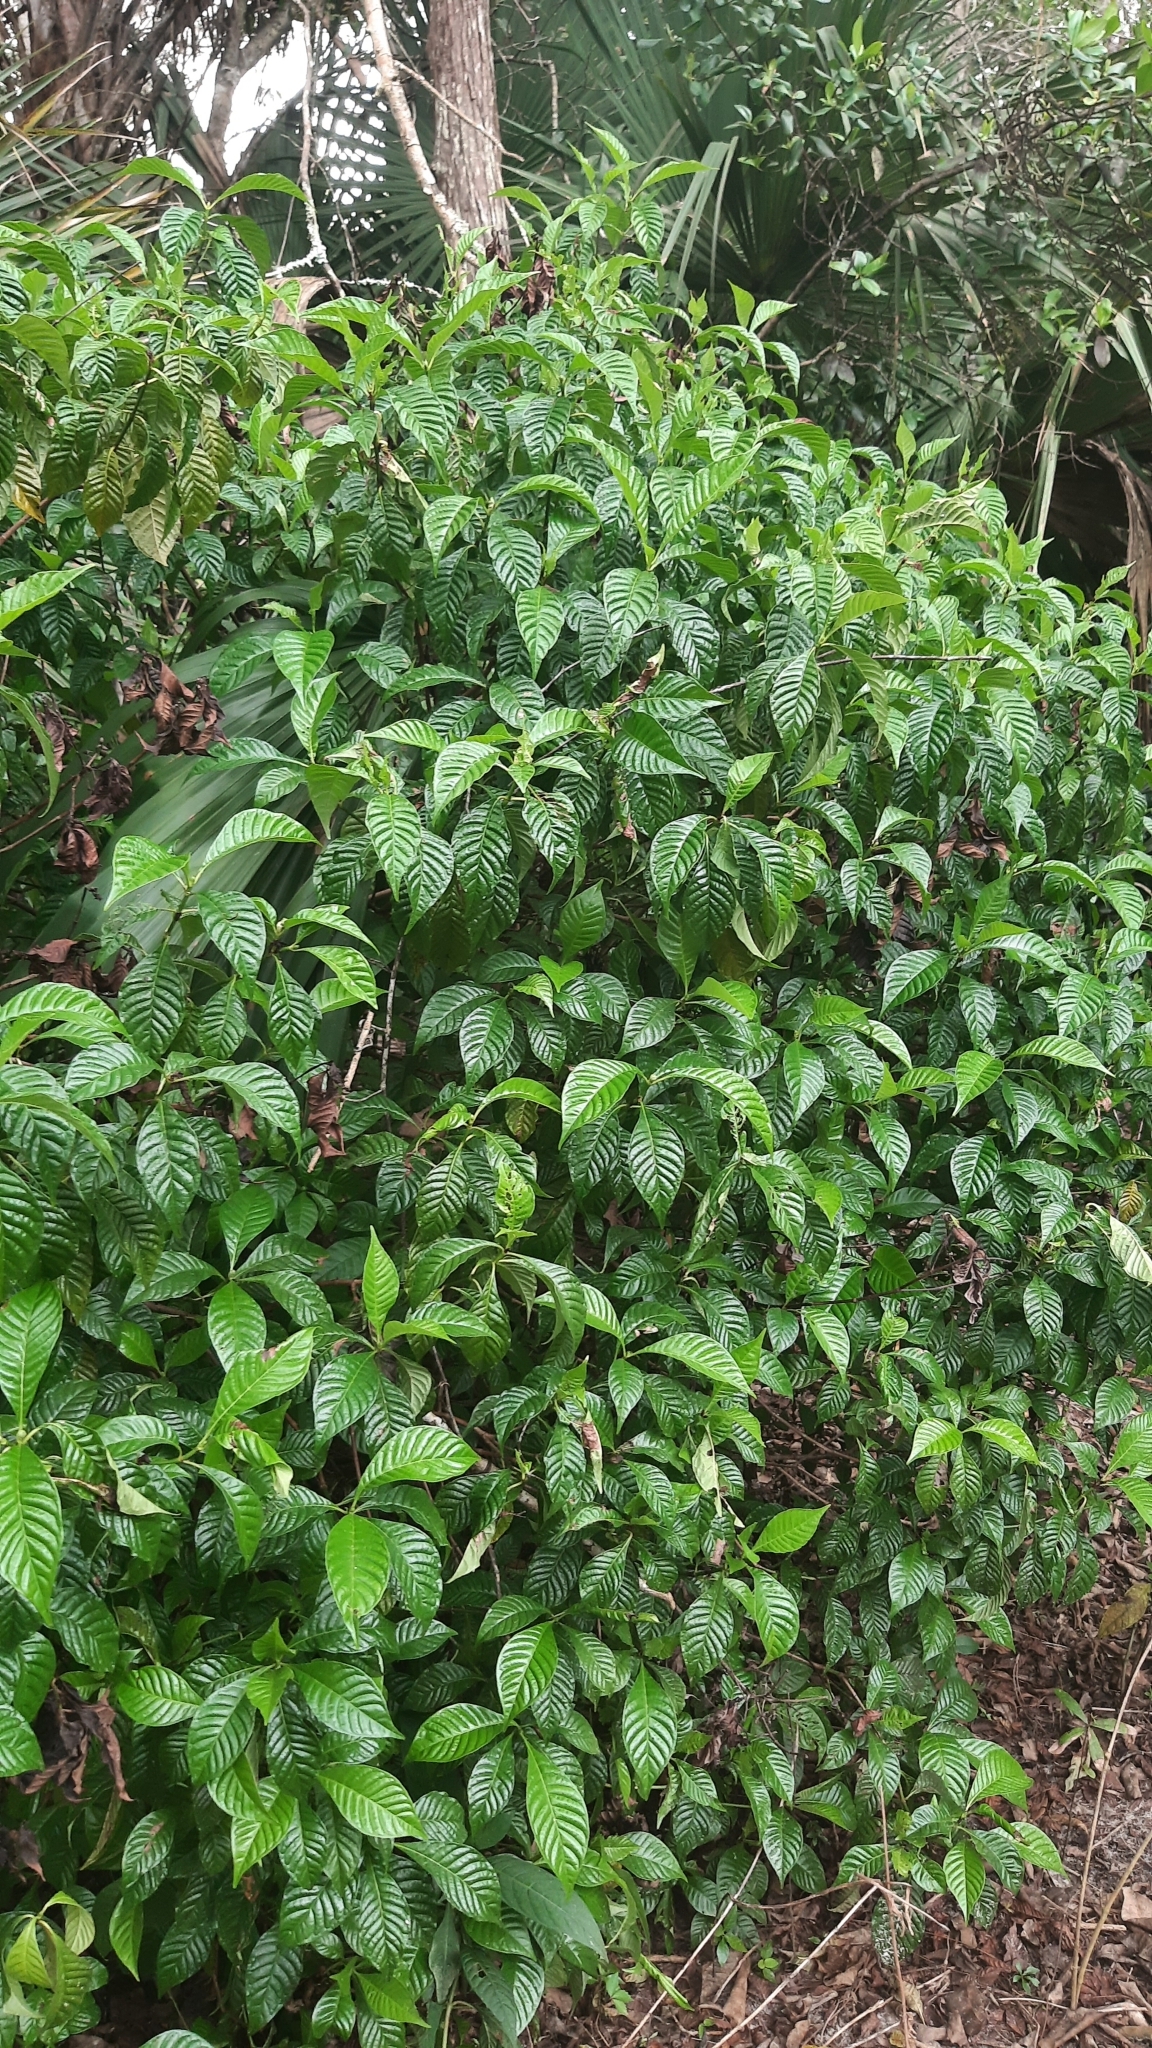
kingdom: Plantae
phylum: Tracheophyta
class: Magnoliopsida
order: Gentianales
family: Rubiaceae
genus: Psychotria
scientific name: Psychotria nervosa
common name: Bastard cankerberry
